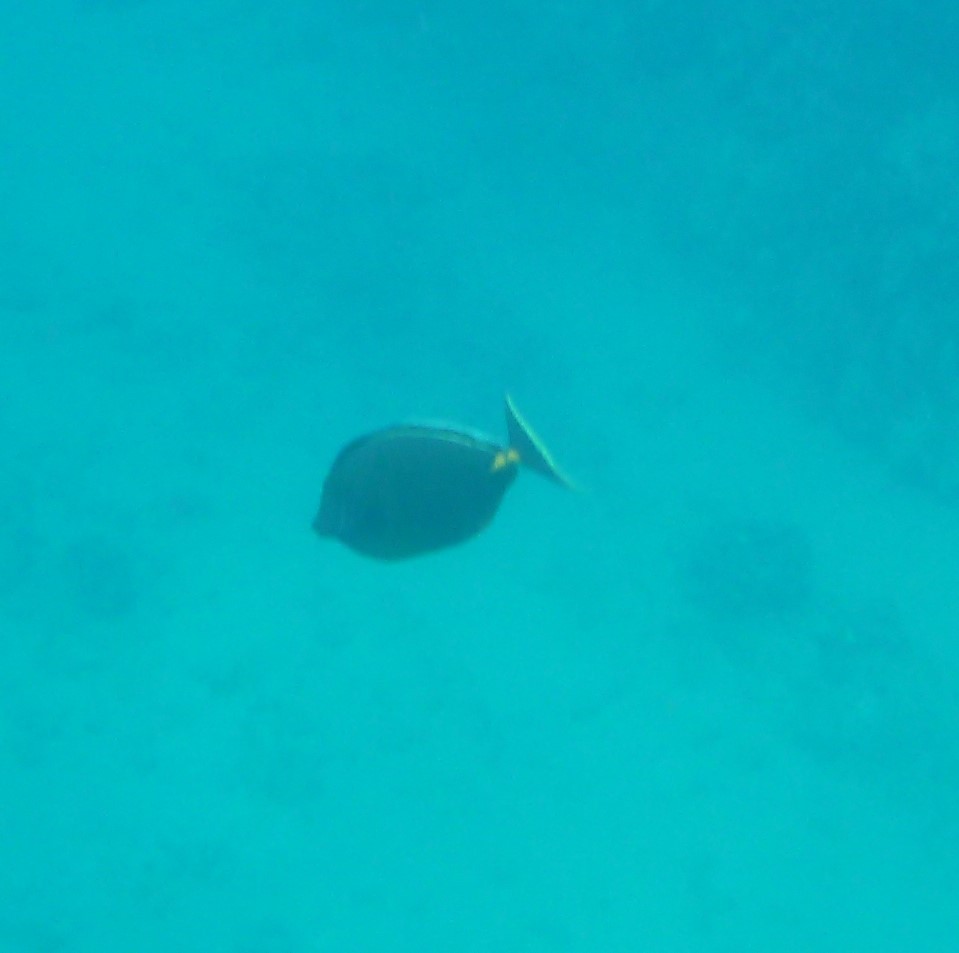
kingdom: Animalia
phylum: Chordata
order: Perciformes
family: Acanthuridae
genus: Naso
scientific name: Naso lituratus
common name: Orangespine unicornfish
